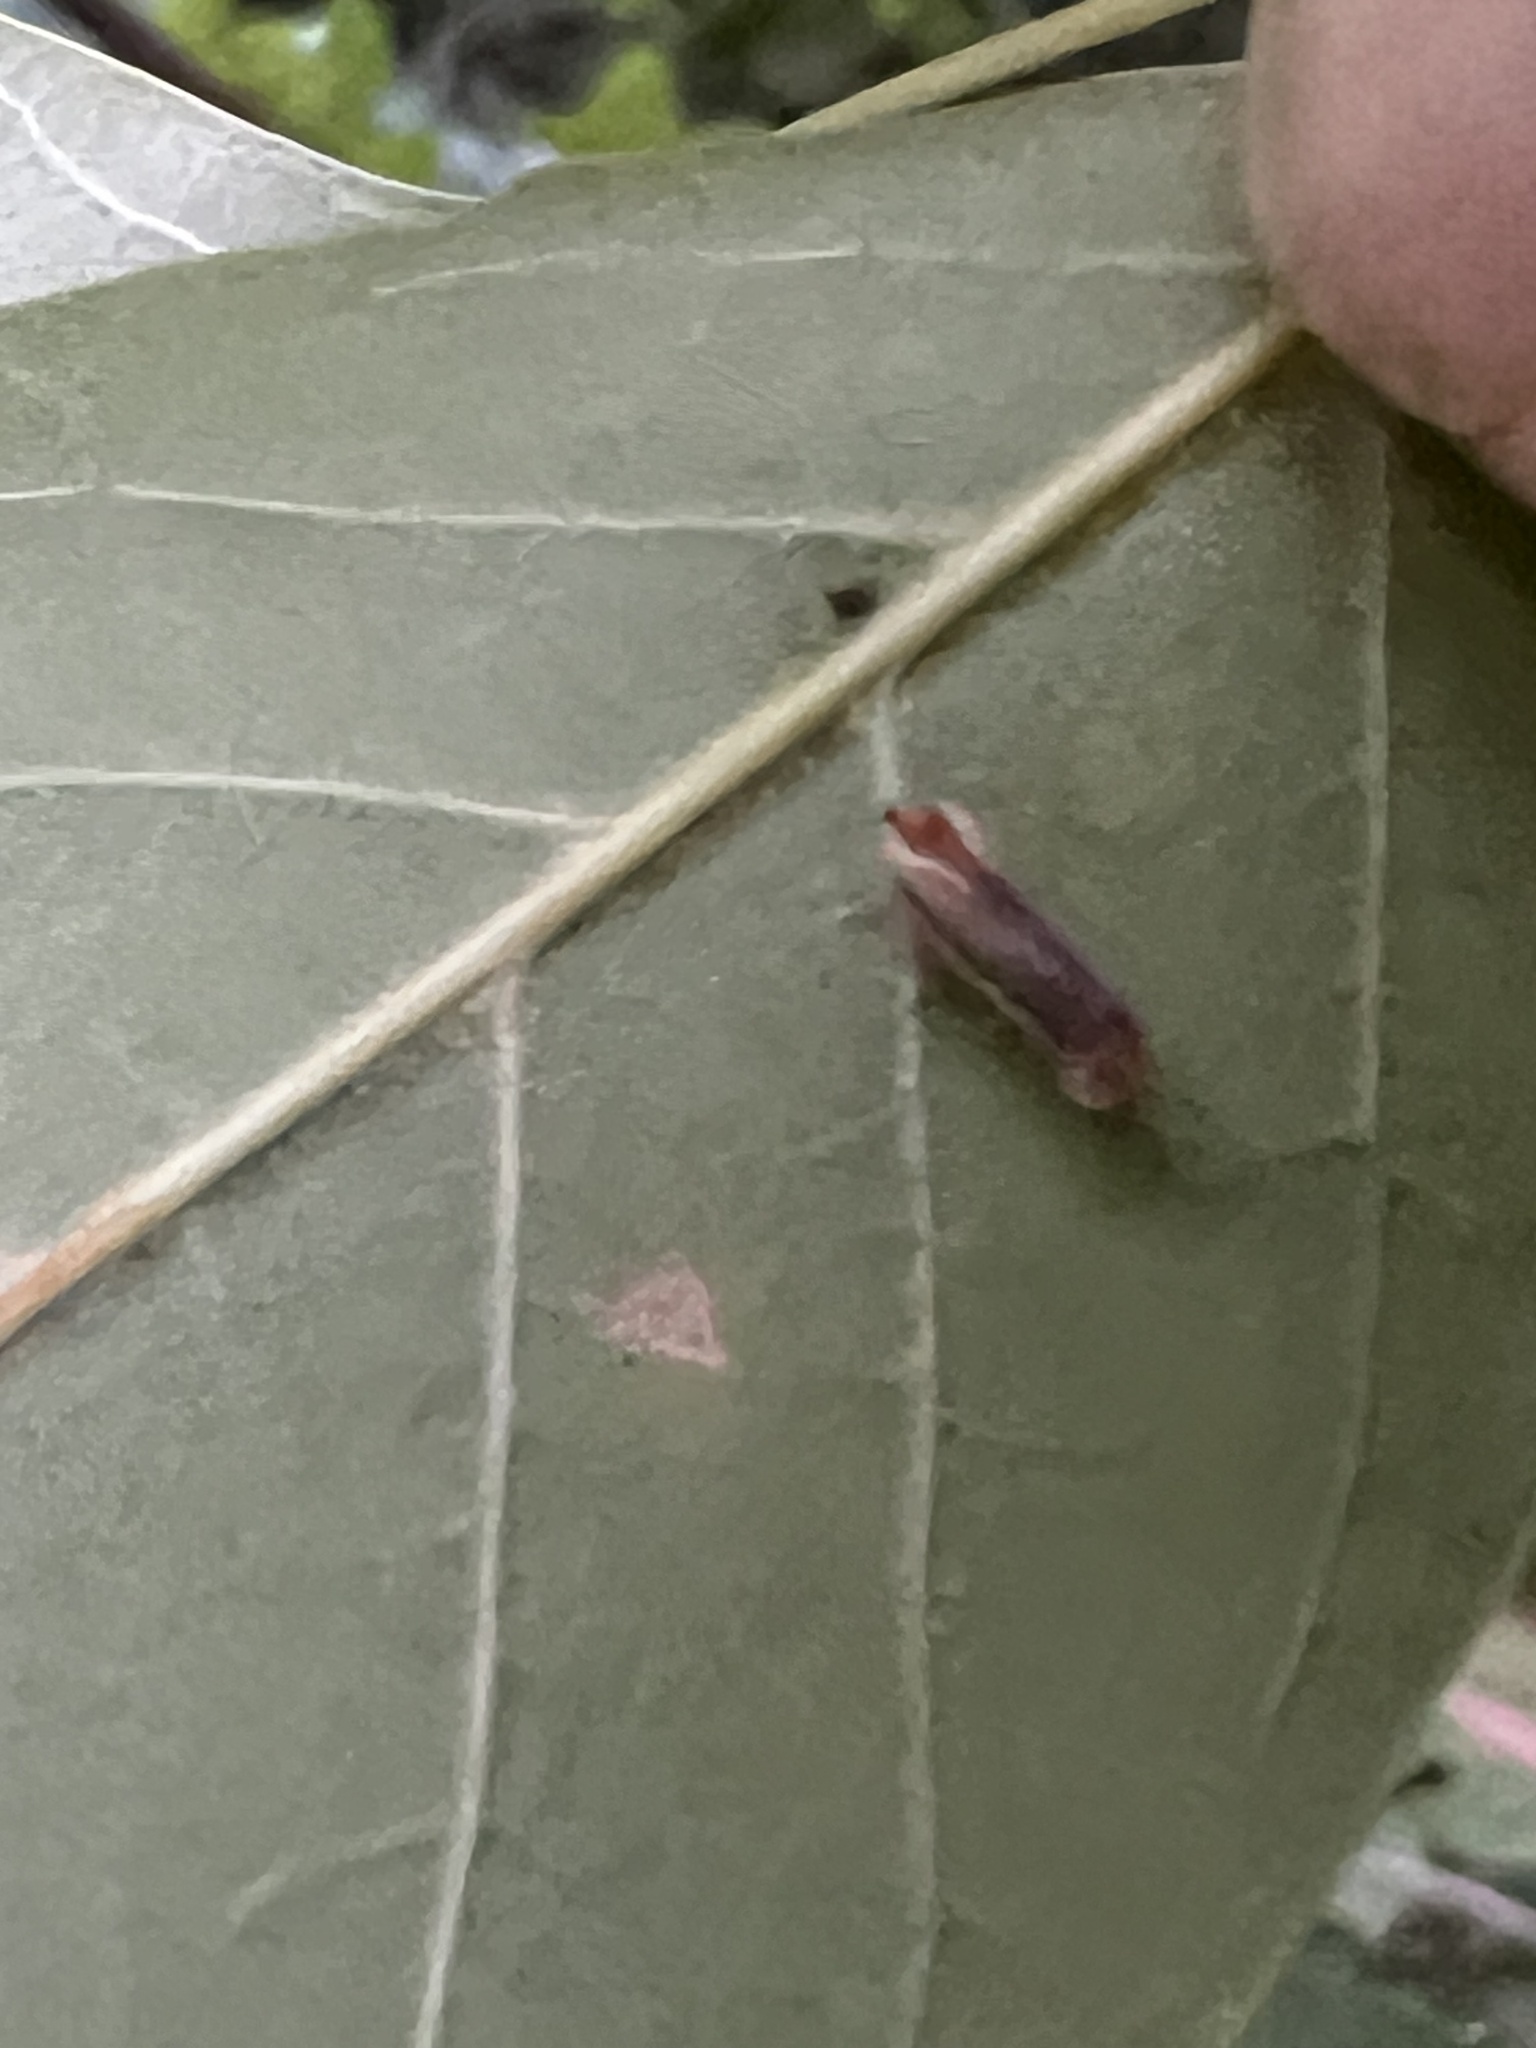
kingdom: Animalia
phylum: Arthropoda
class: Insecta
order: Hemiptera
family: Derbidae
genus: Omolicna
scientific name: Omolicna uhleri
